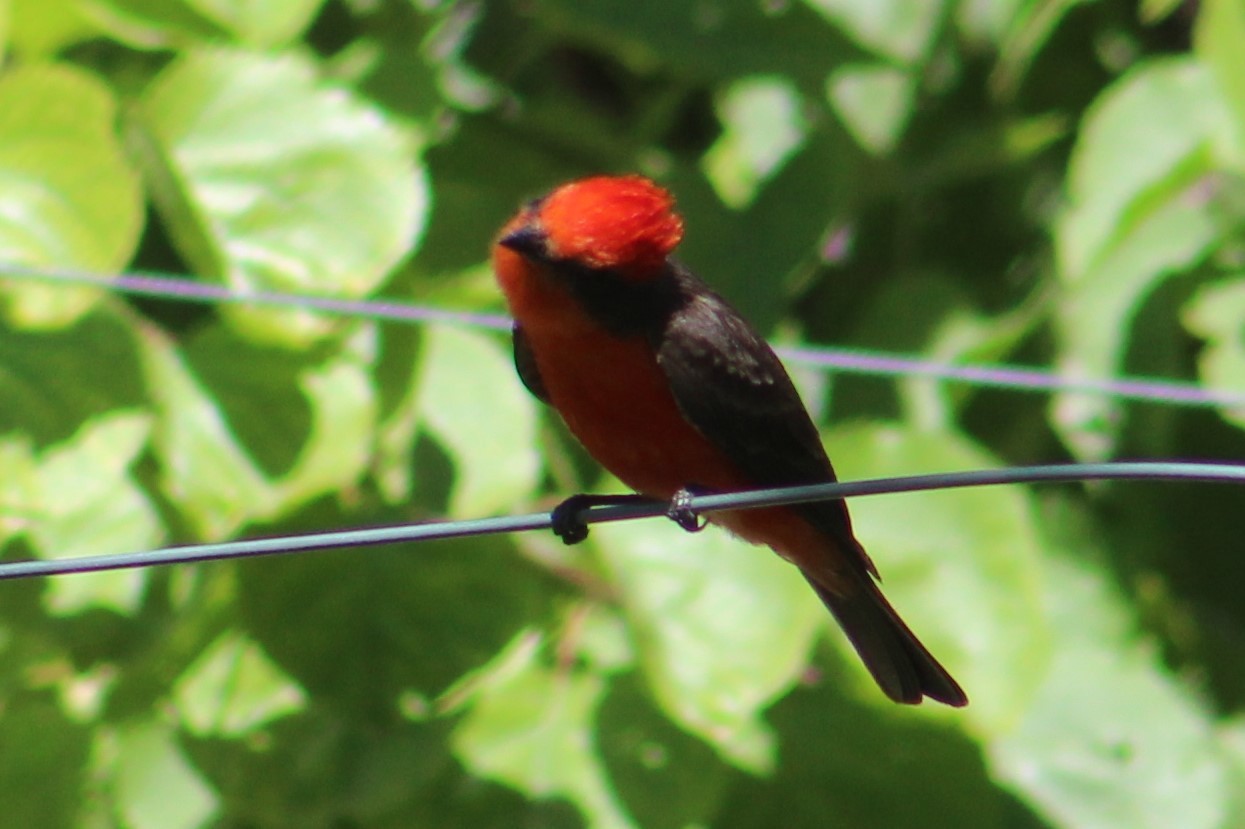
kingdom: Animalia
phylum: Chordata
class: Aves
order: Passeriformes
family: Tyrannidae
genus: Pyrocephalus
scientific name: Pyrocephalus rubinus
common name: Vermilion flycatcher
